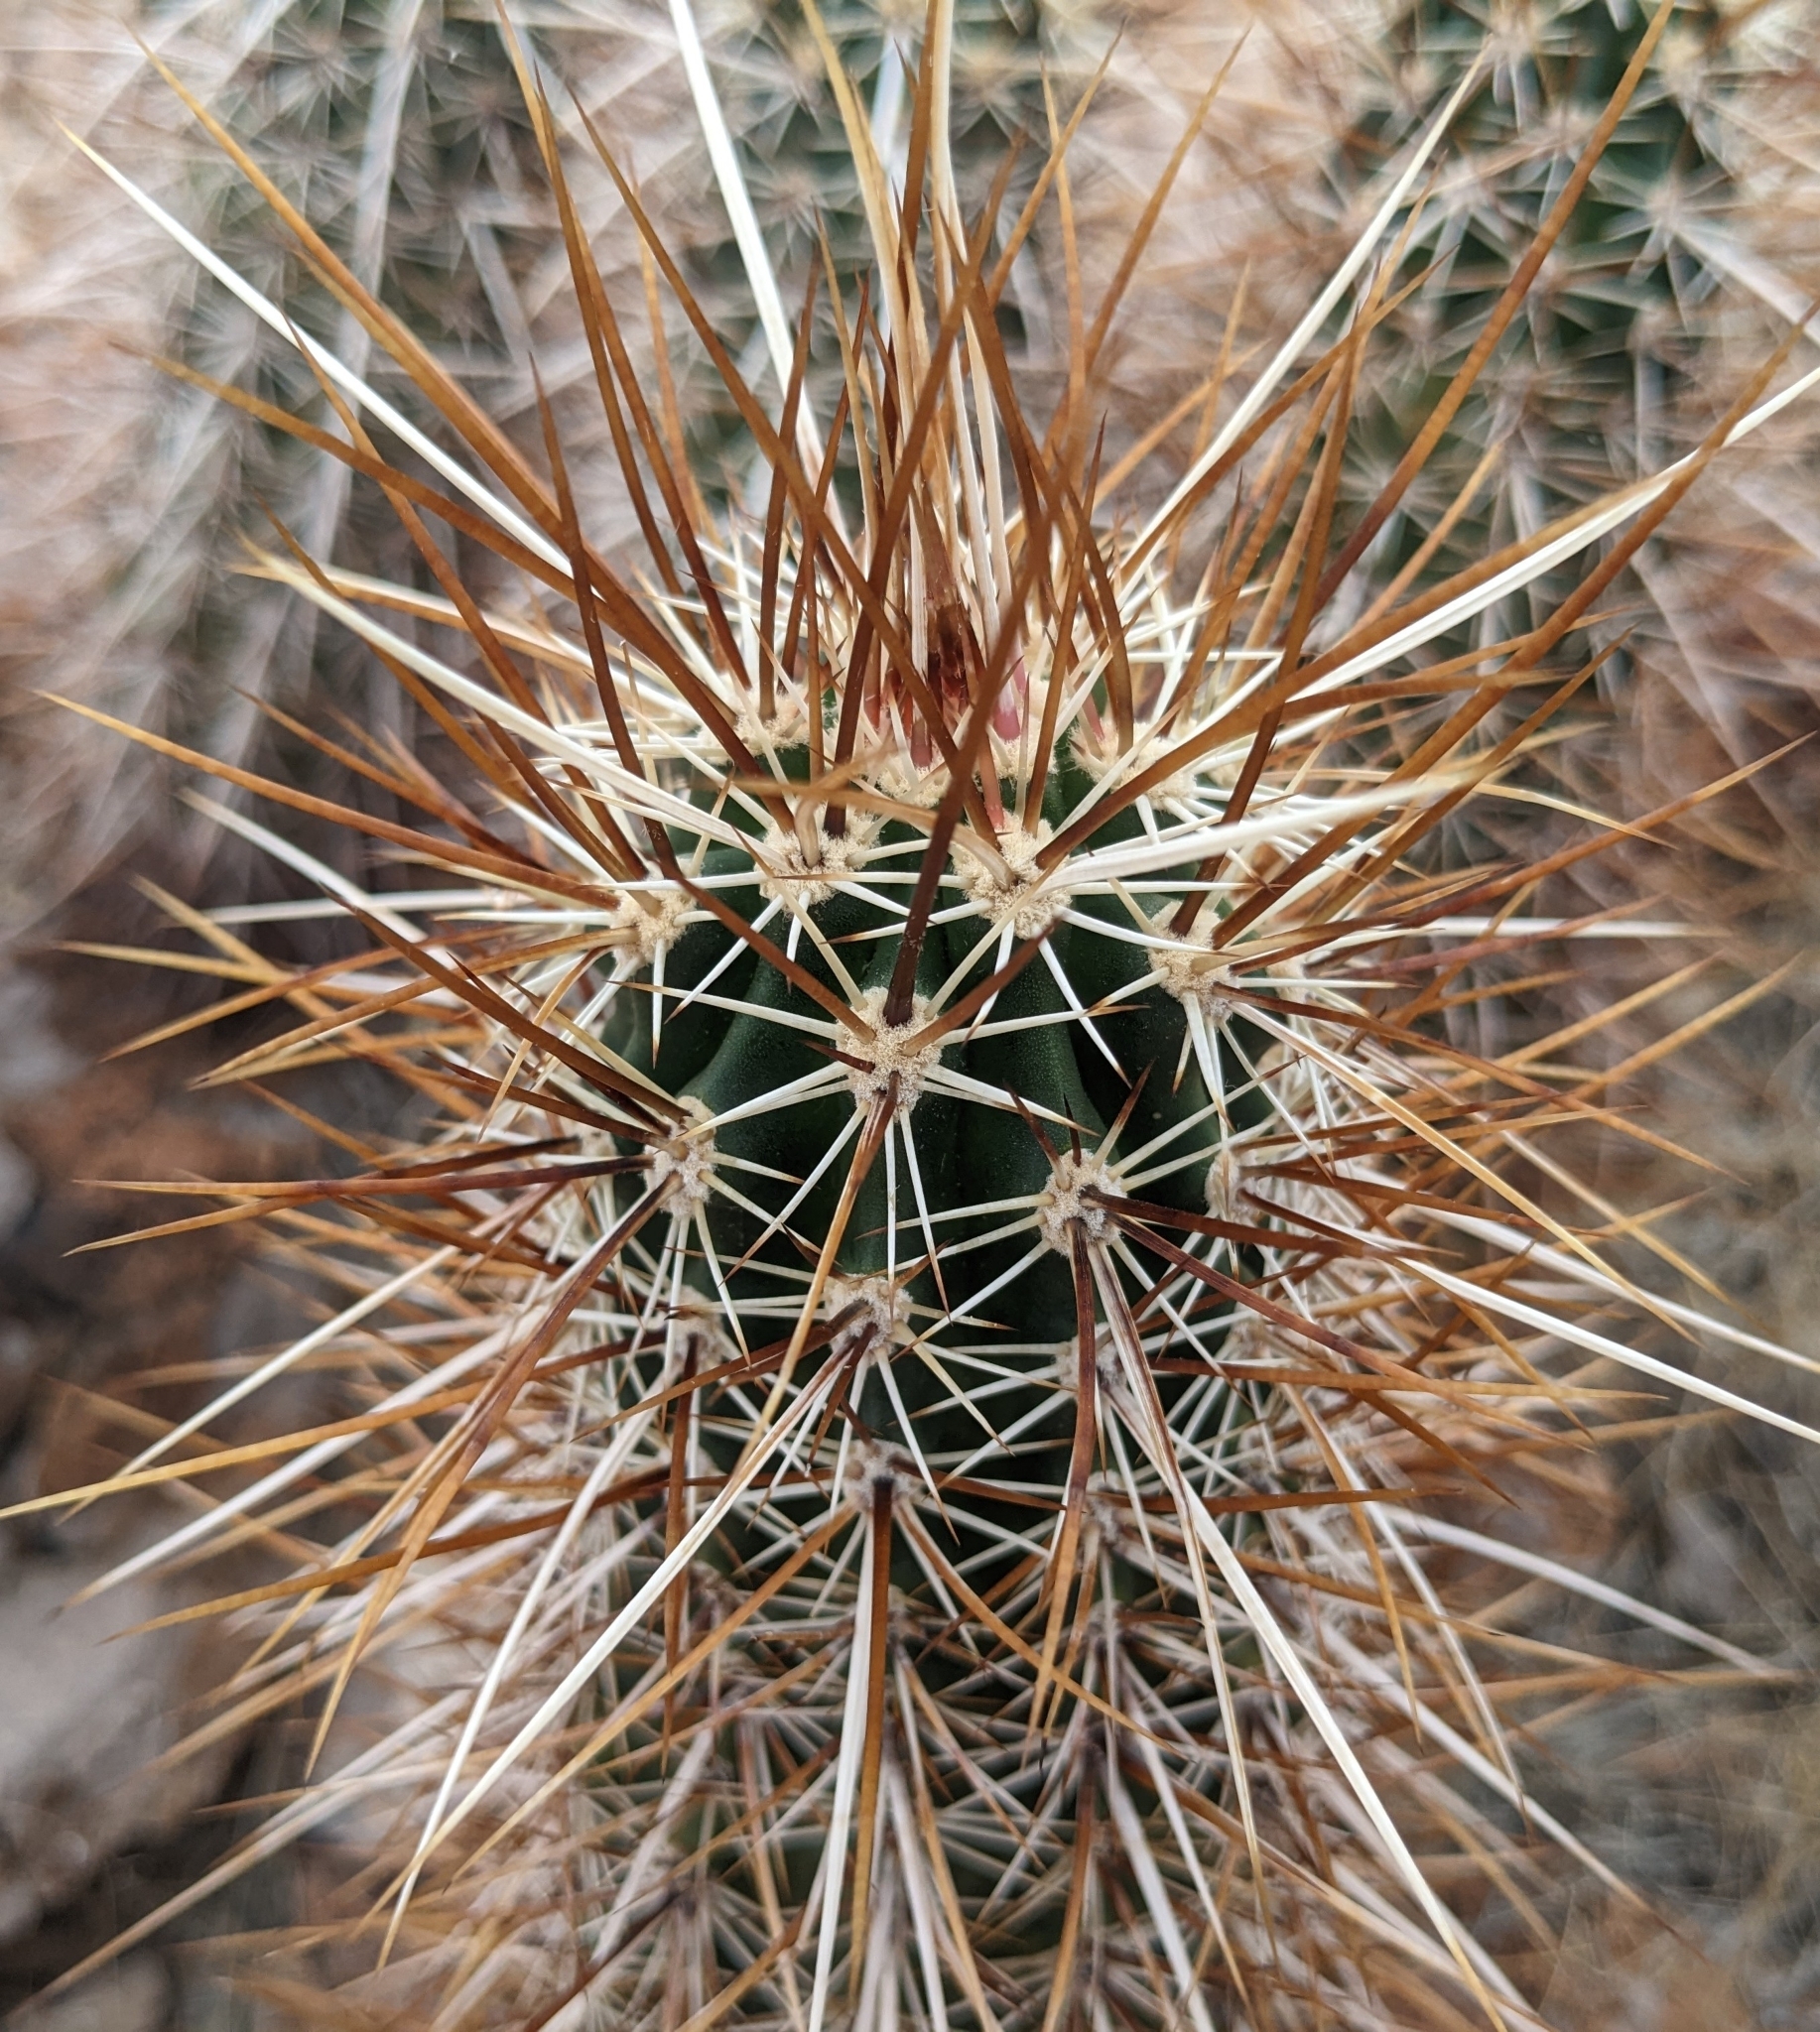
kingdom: Plantae
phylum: Tracheophyta
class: Magnoliopsida
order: Caryophyllales
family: Cactaceae
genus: Echinocereus
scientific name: Echinocereus engelmannii
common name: Engelmann's hedgehog cactus
